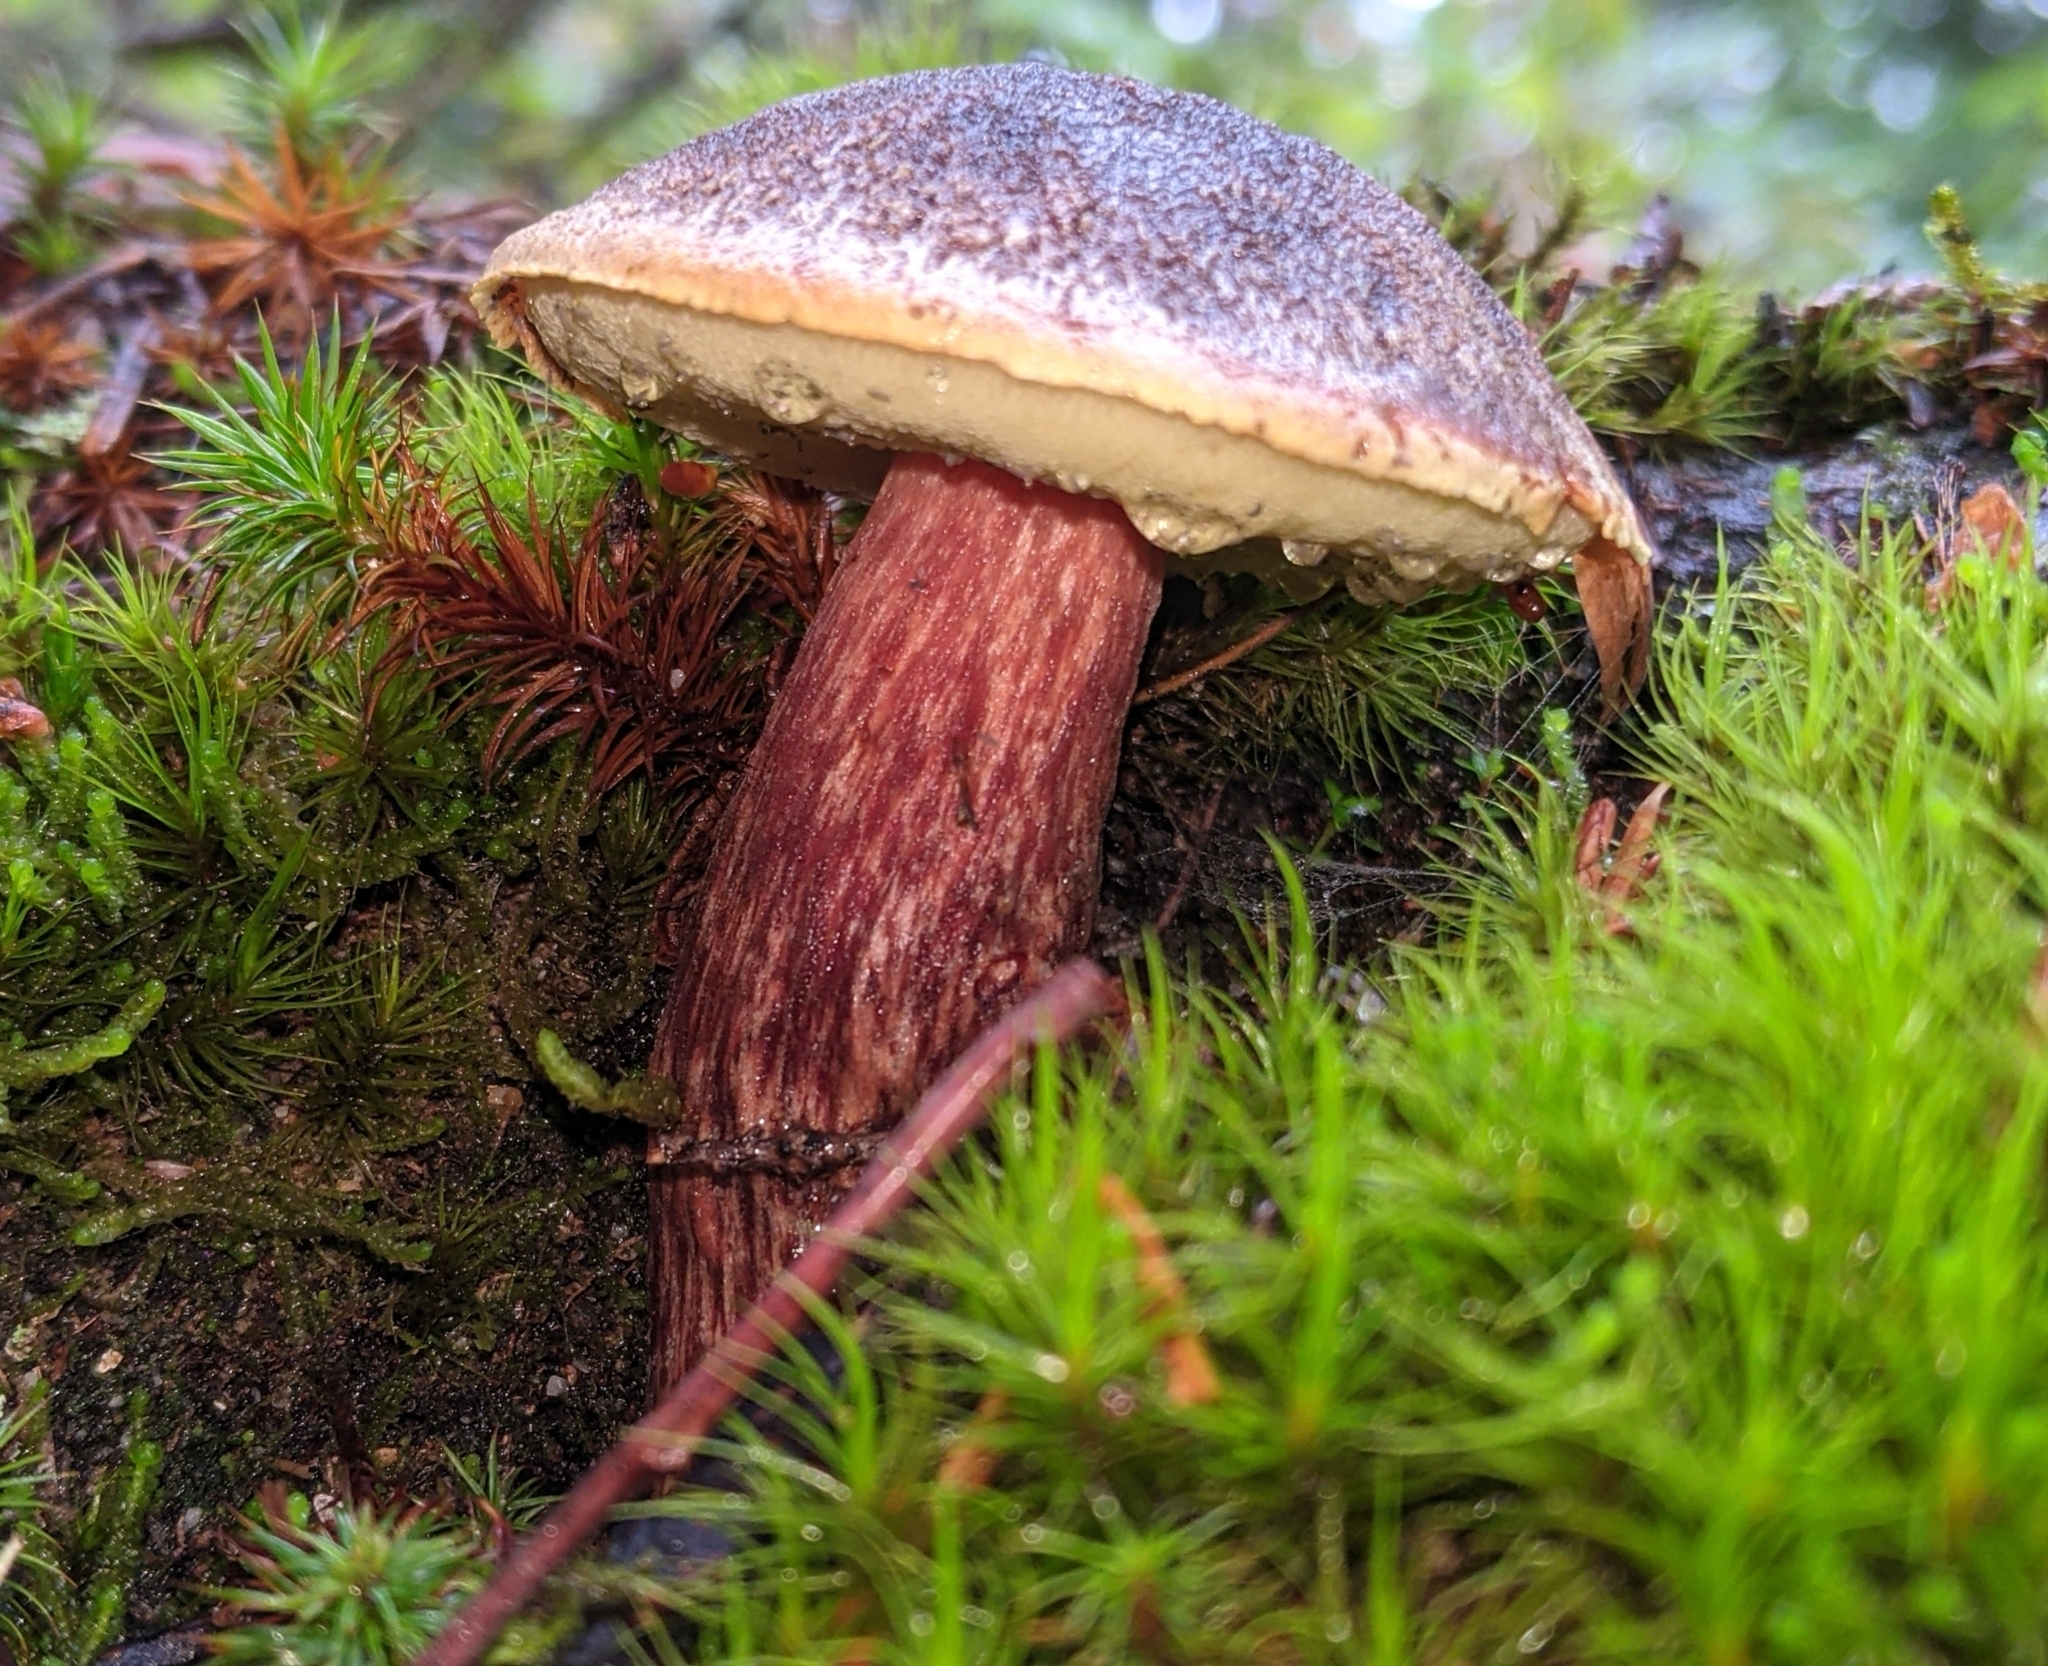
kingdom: Fungi
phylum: Basidiomycota
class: Agaricomycetes
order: Boletales
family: Boletaceae
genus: Aureoboletus
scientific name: Aureoboletus mirabilis
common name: Admirable bolete
